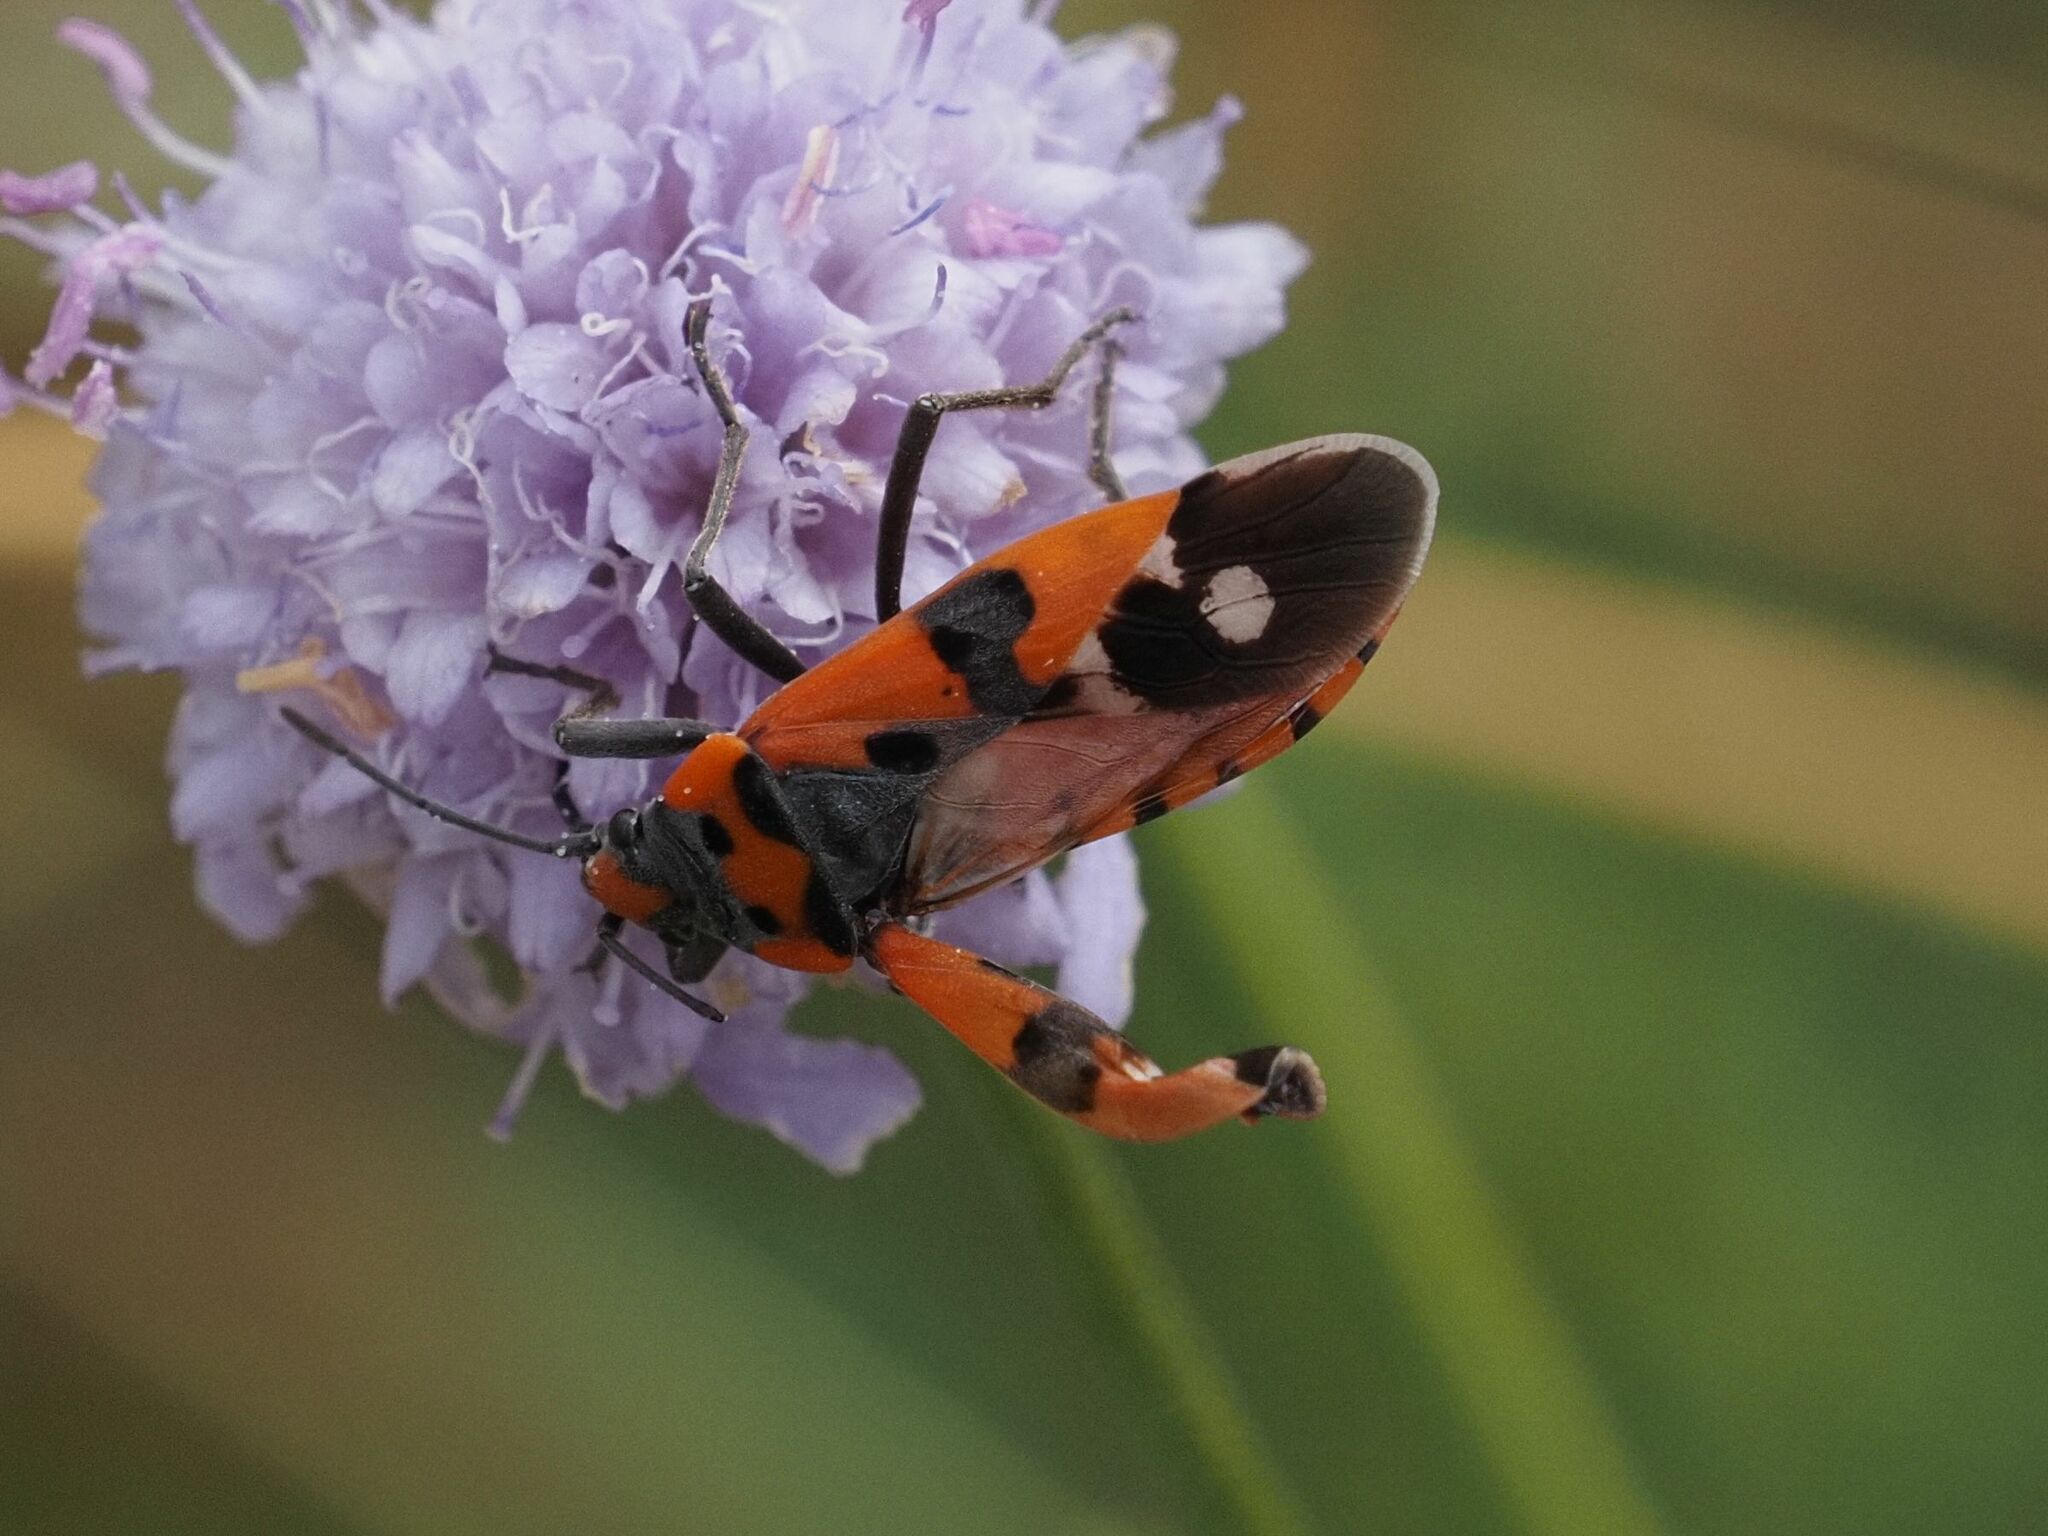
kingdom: Animalia
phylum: Arthropoda
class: Insecta
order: Hemiptera
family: Lygaeidae
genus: Lygaeus
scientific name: Lygaeus equestris
